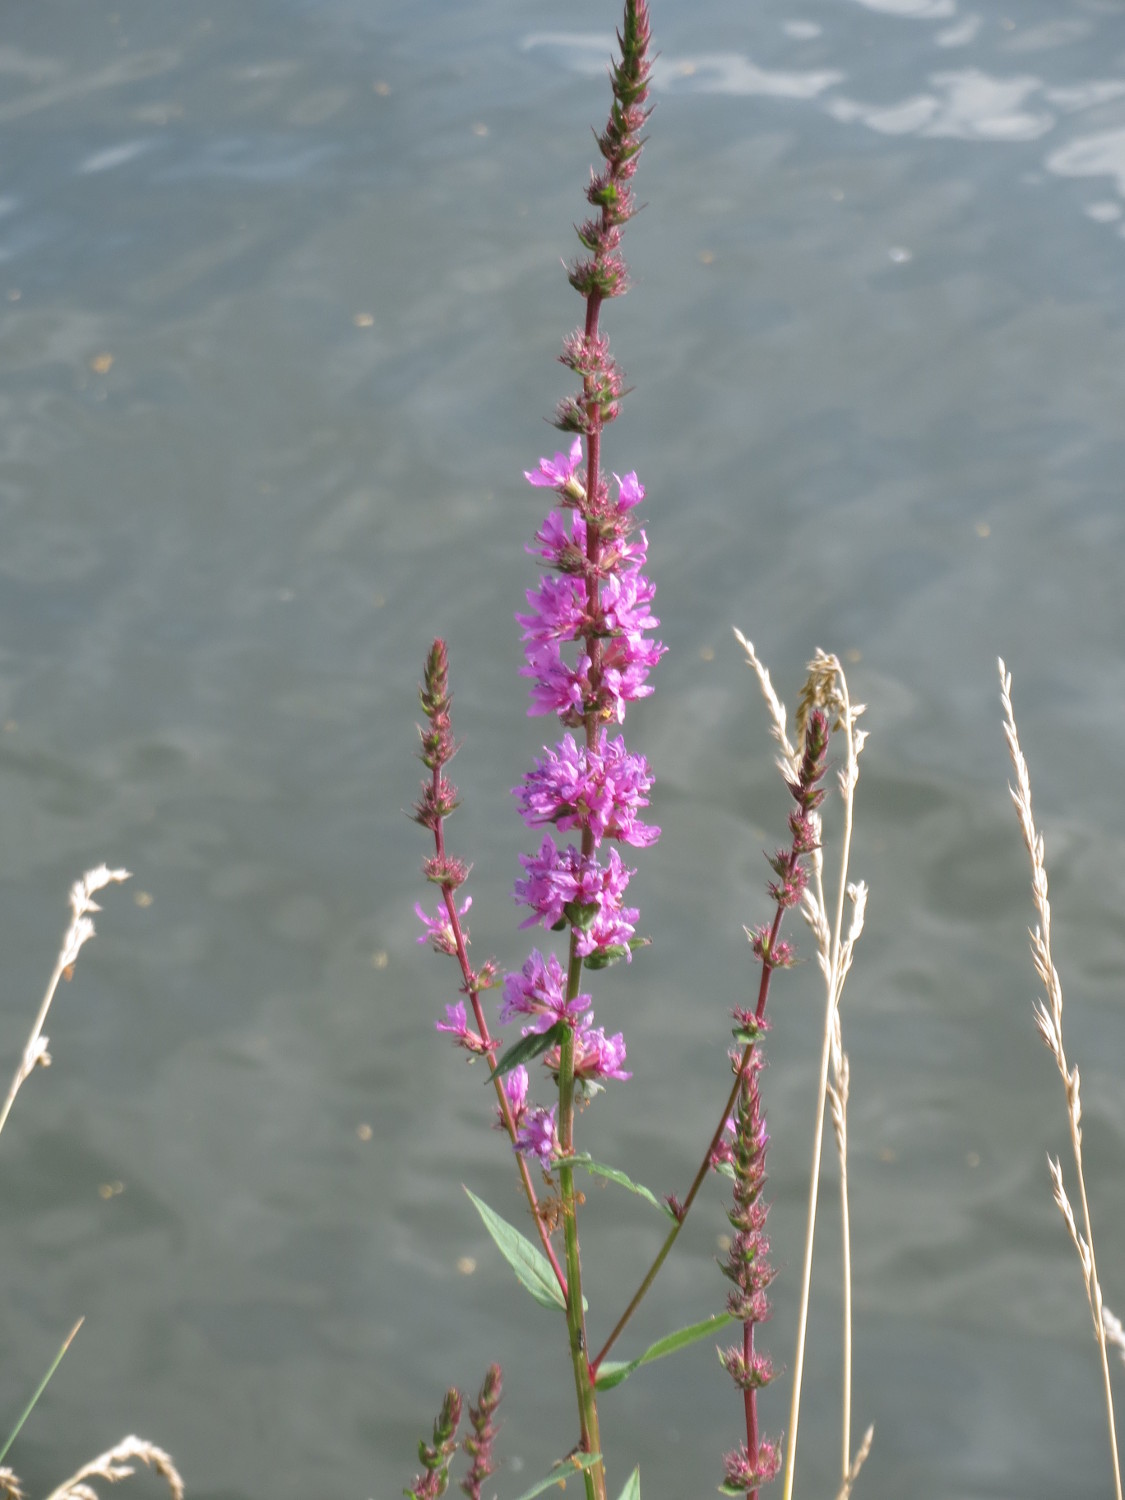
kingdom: Plantae
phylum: Tracheophyta
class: Magnoliopsida
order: Myrtales
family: Lythraceae
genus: Lythrum
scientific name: Lythrum salicaria
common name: Purple loosestrife
